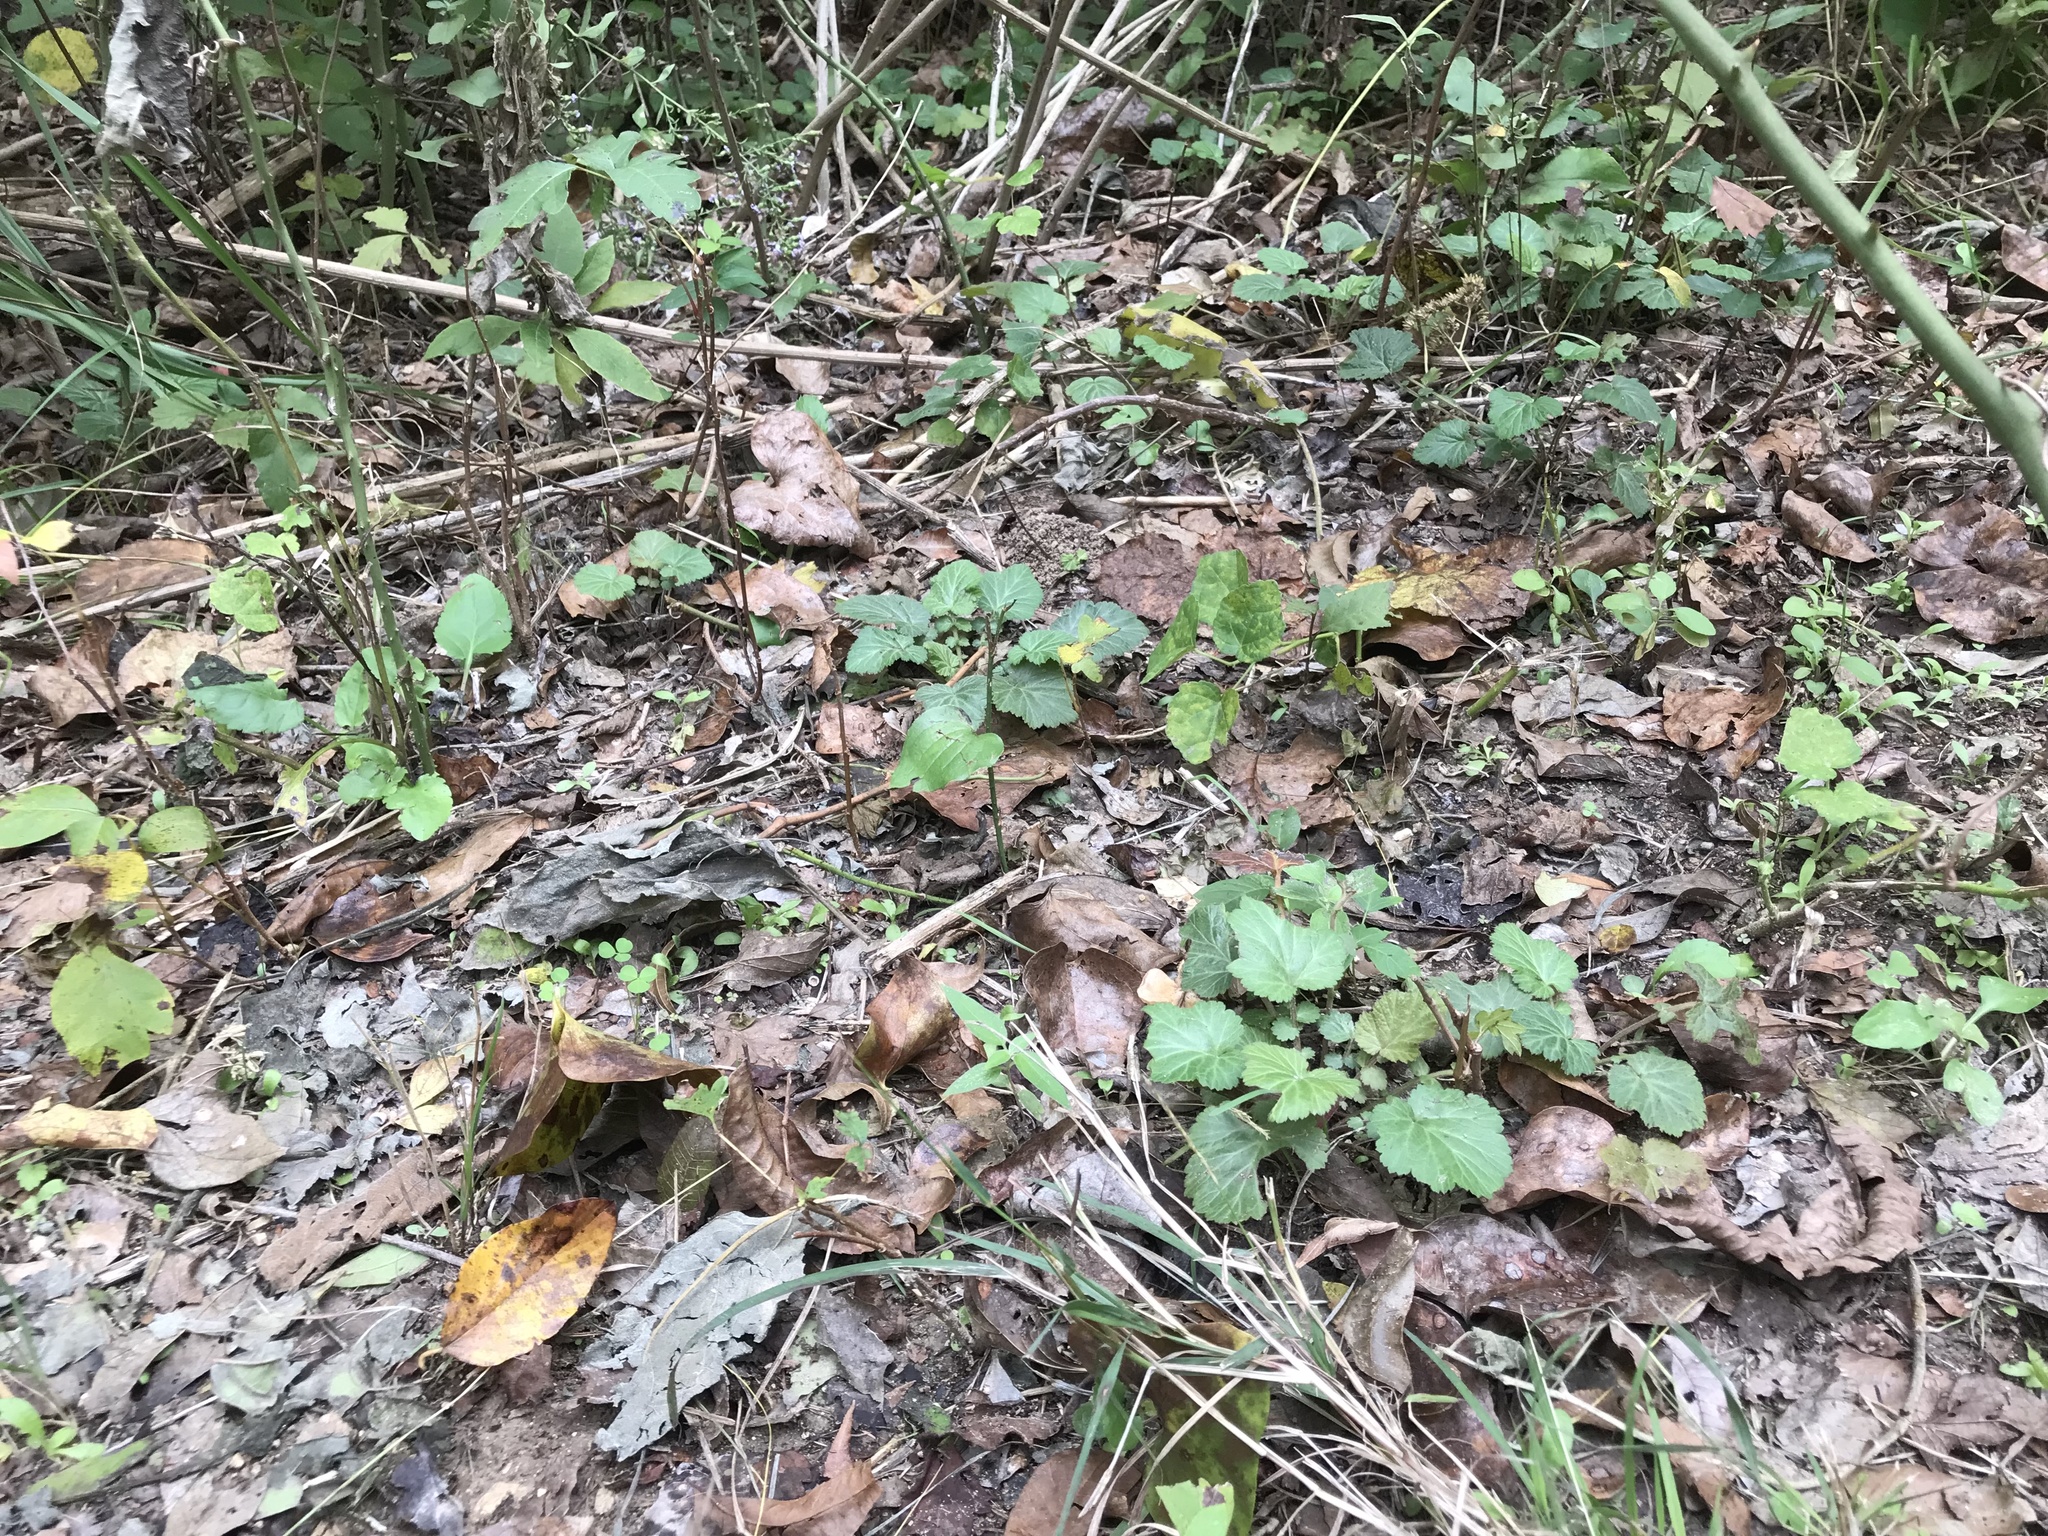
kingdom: Plantae
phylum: Tracheophyta
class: Magnoliopsida
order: Rosales
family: Rosaceae
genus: Geum
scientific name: Geum canadense
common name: White avens
